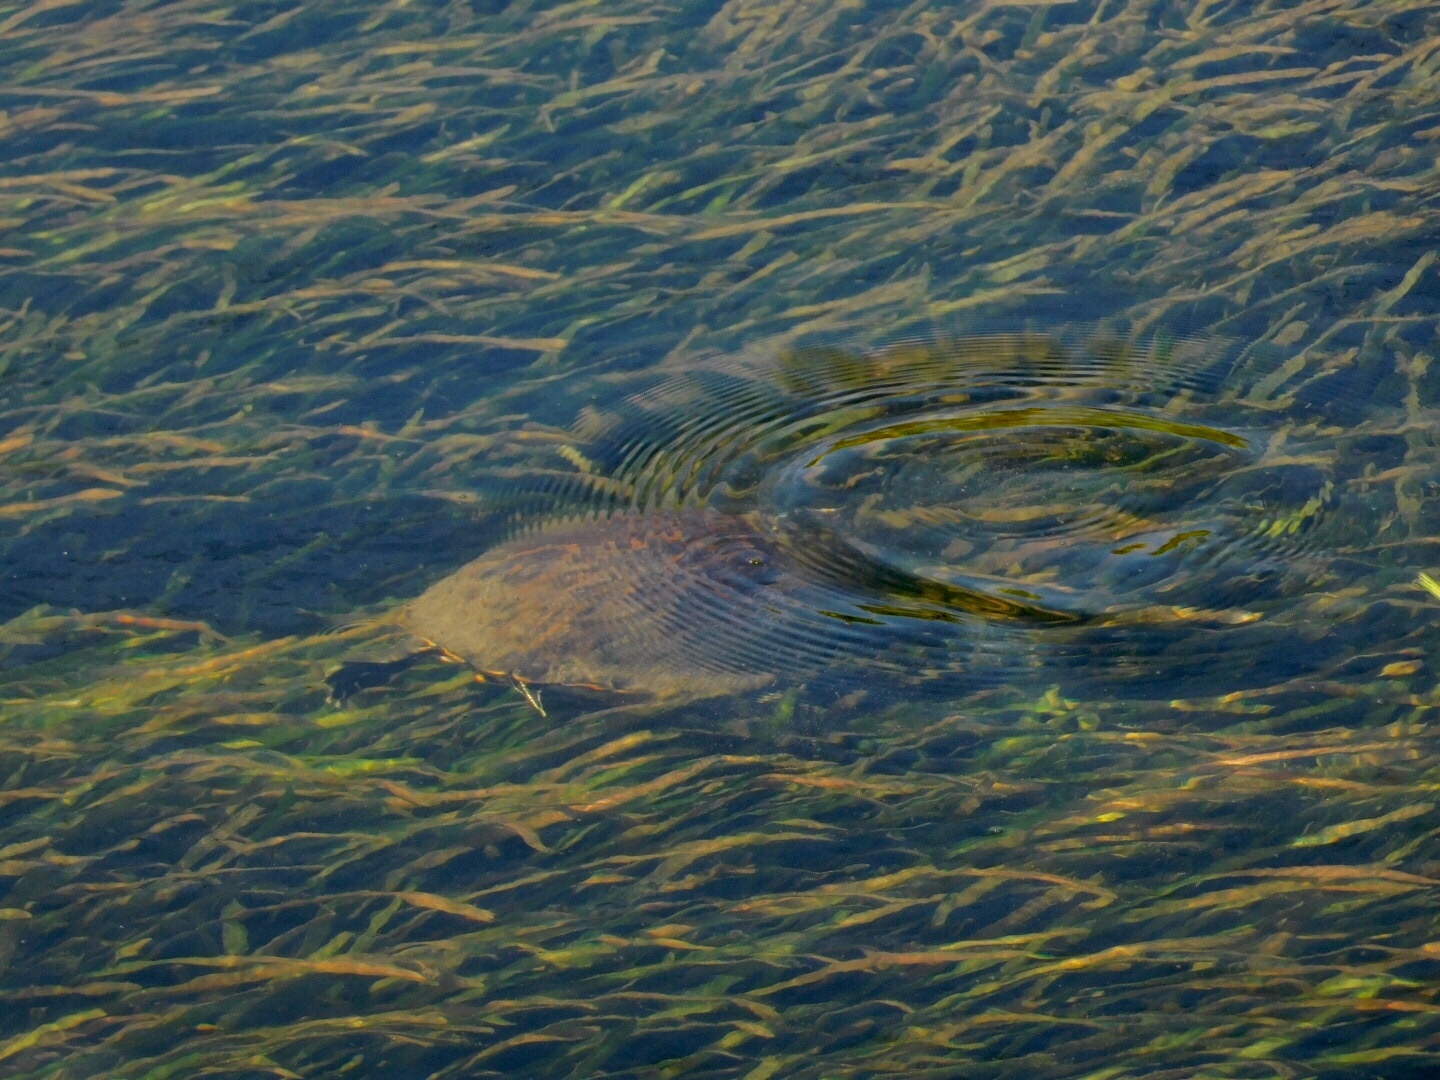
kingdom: Animalia
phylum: Chordata
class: Testudines
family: Emydidae
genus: Pseudemys
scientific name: Pseudemys nelsoni
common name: Florida red-bellied turtle
